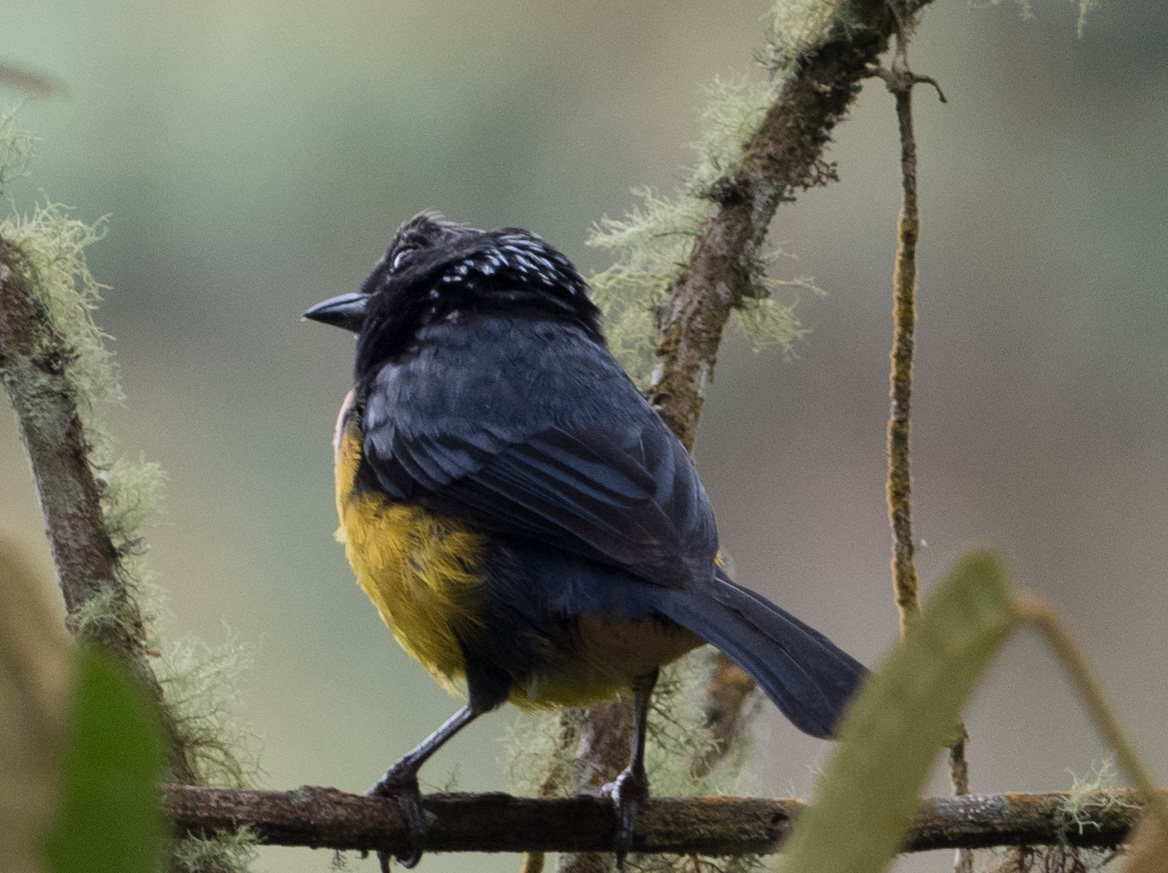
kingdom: Animalia
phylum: Chordata
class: Aves
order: Passeriformes
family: Thraupidae
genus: Dubusia
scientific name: Dubusia taeniata
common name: Buff-breasted mountain tanager
